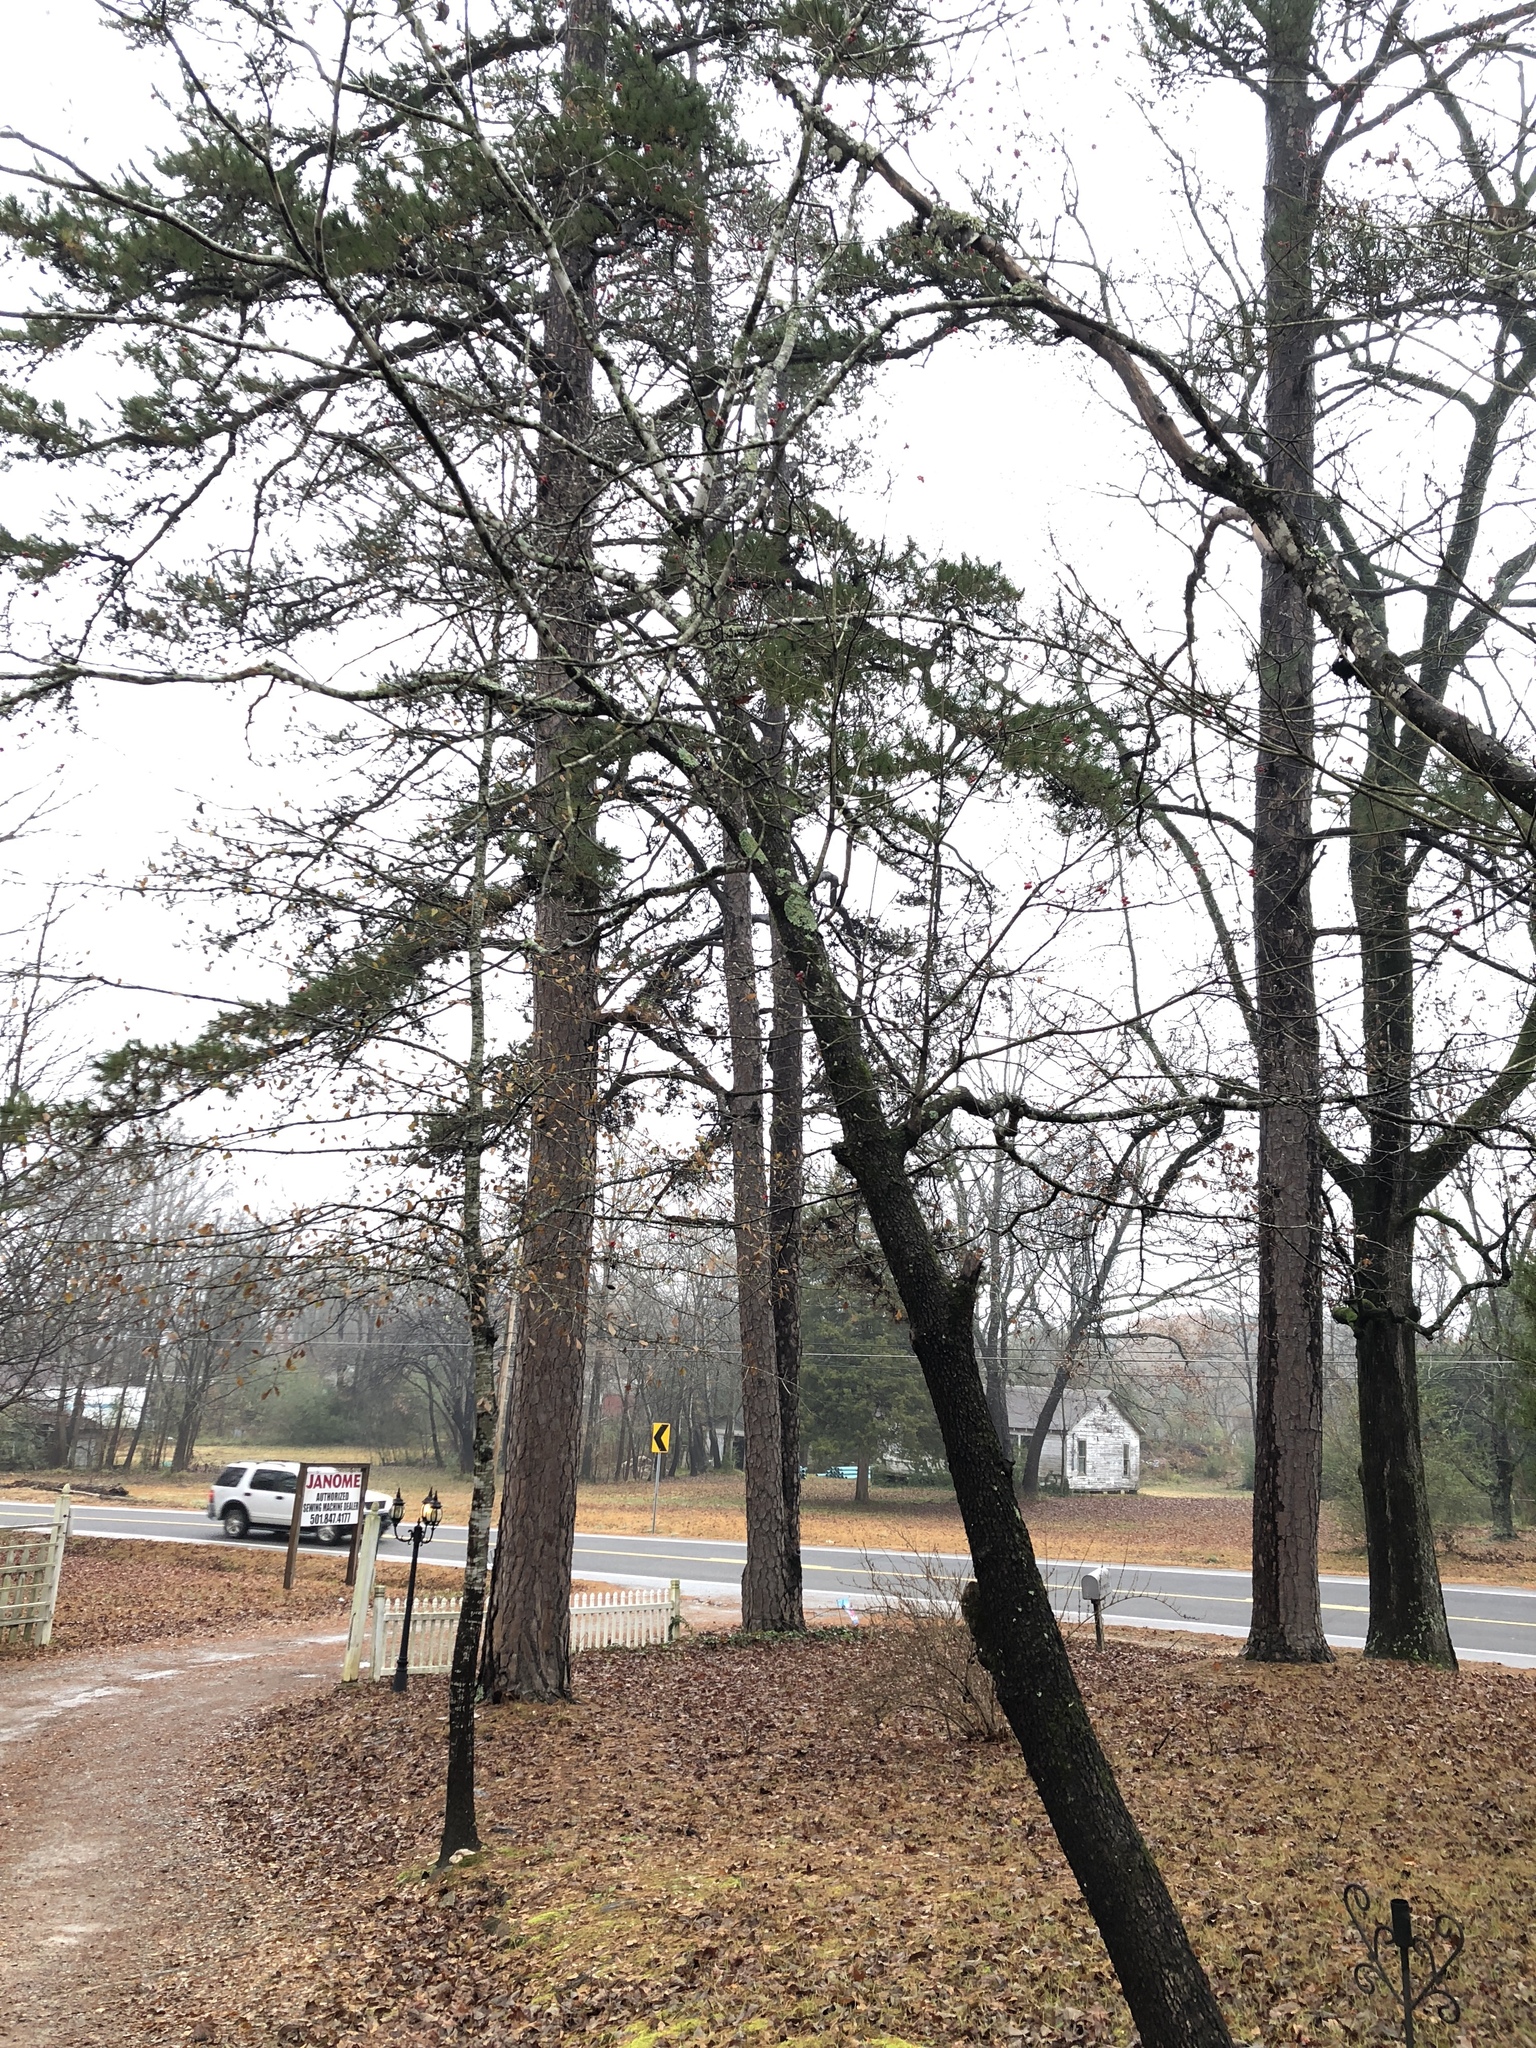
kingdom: Plantae
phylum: Tracheophyta
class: Magnoliopsida
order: Cornales
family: Cornaceae
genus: Cornus
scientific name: Cornus florida
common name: Flowering dogwood
